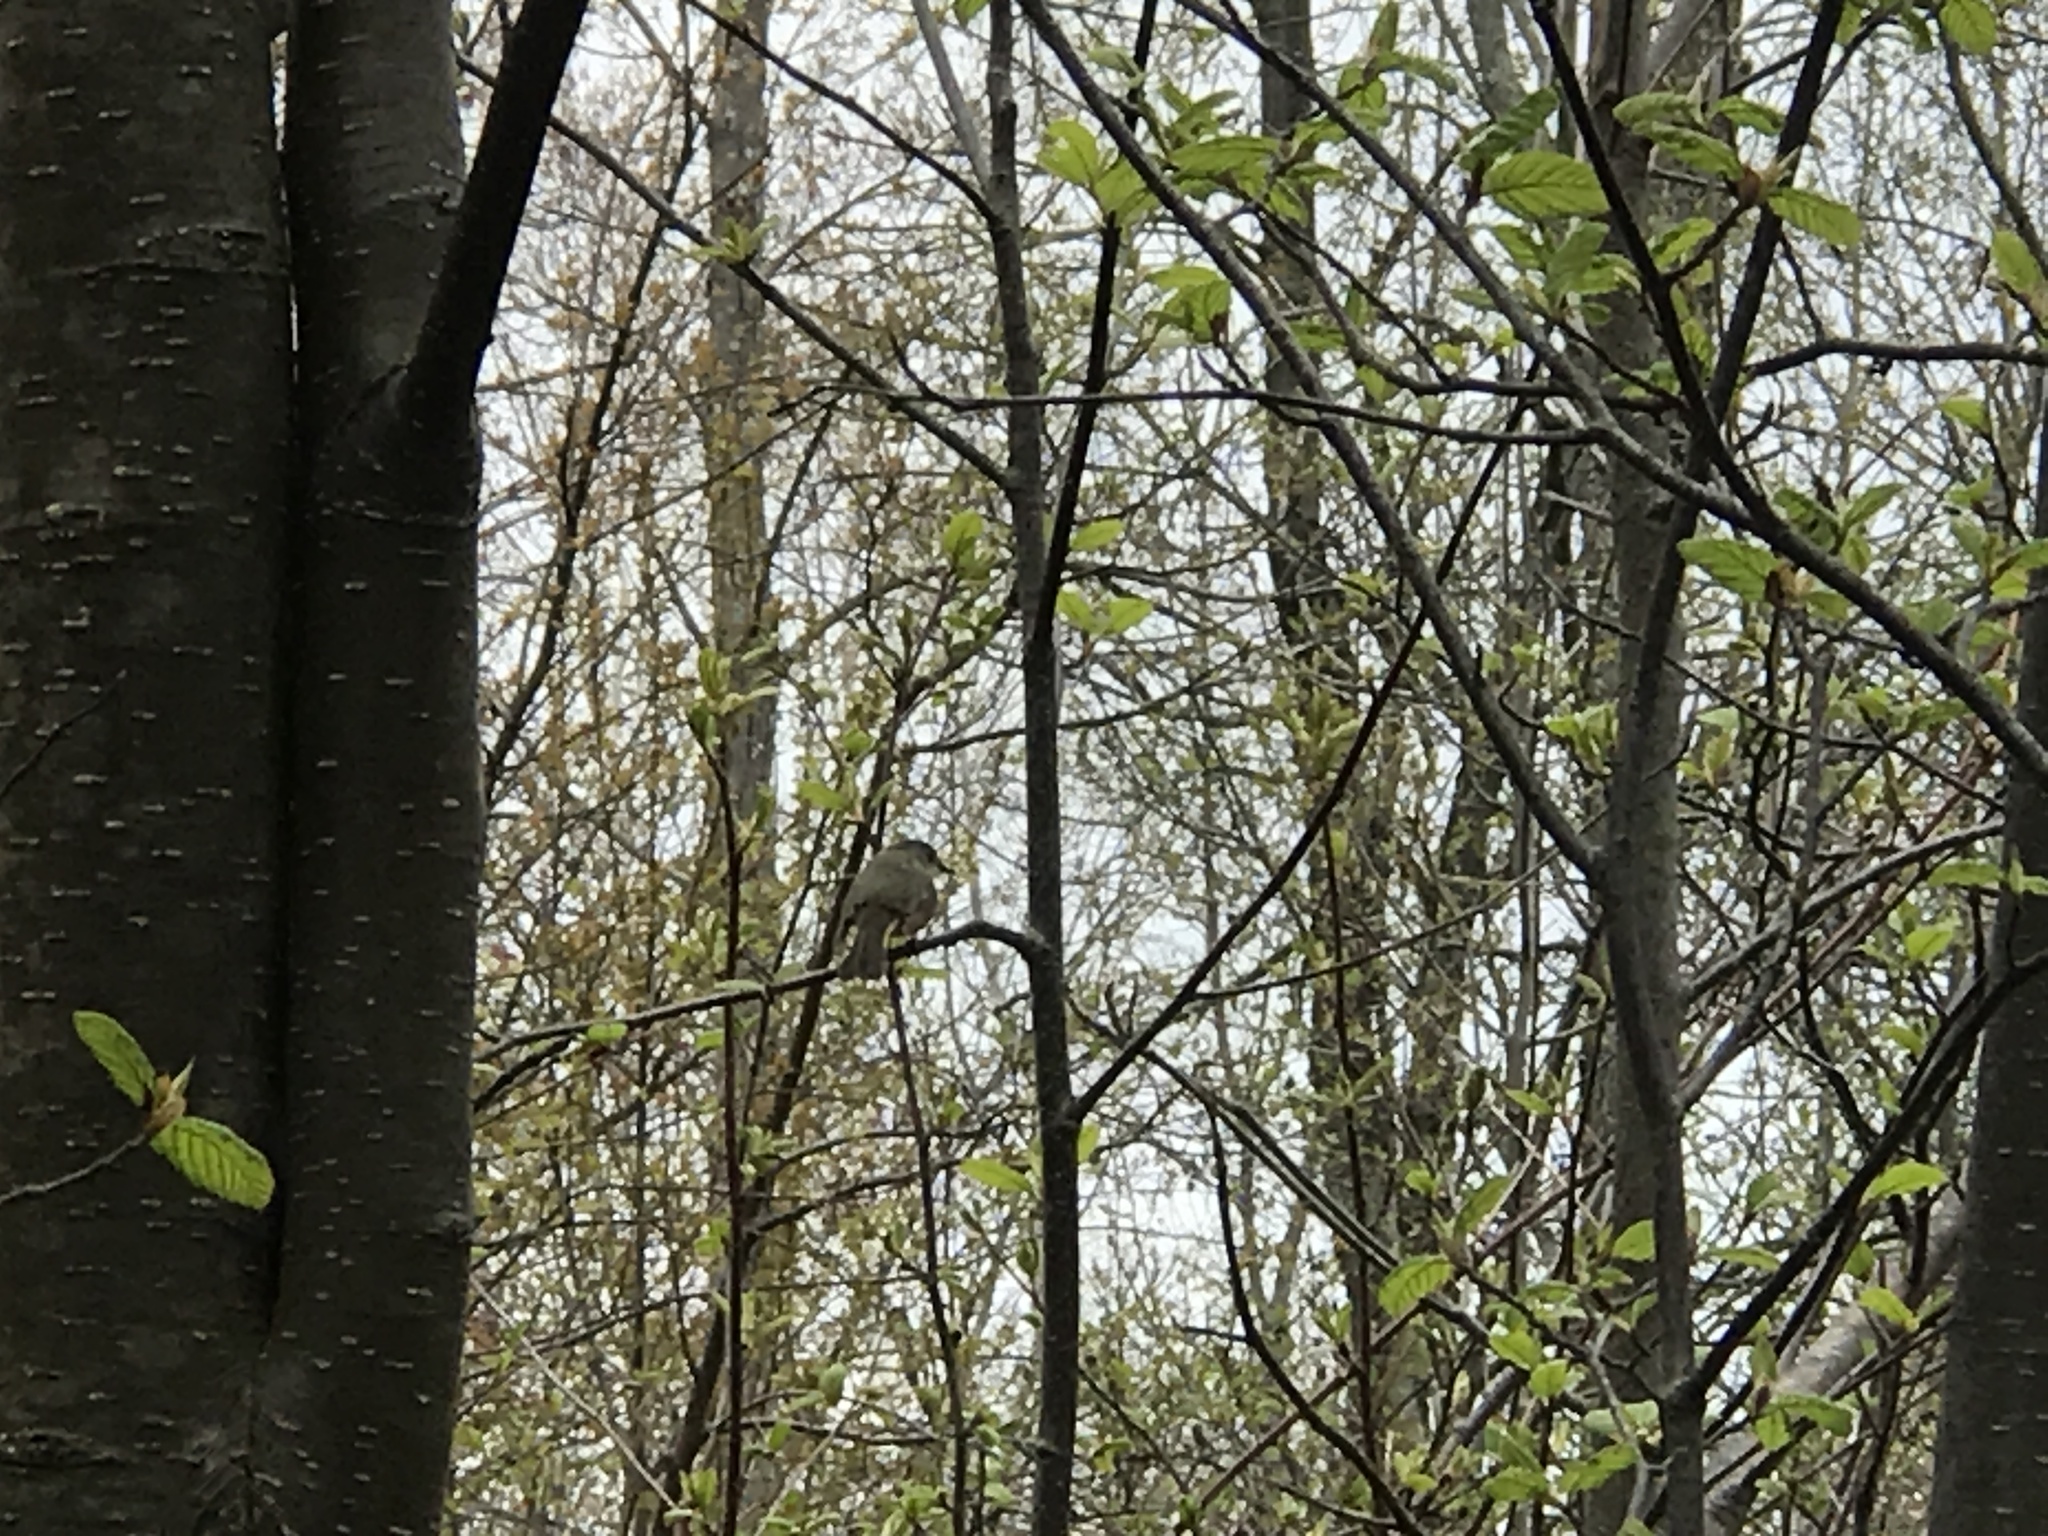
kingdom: Animalia
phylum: Chordata
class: Aves
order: Passeriformes
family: Parulidae
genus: Setophaga
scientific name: Setophaga ruticilla
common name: American redstart
